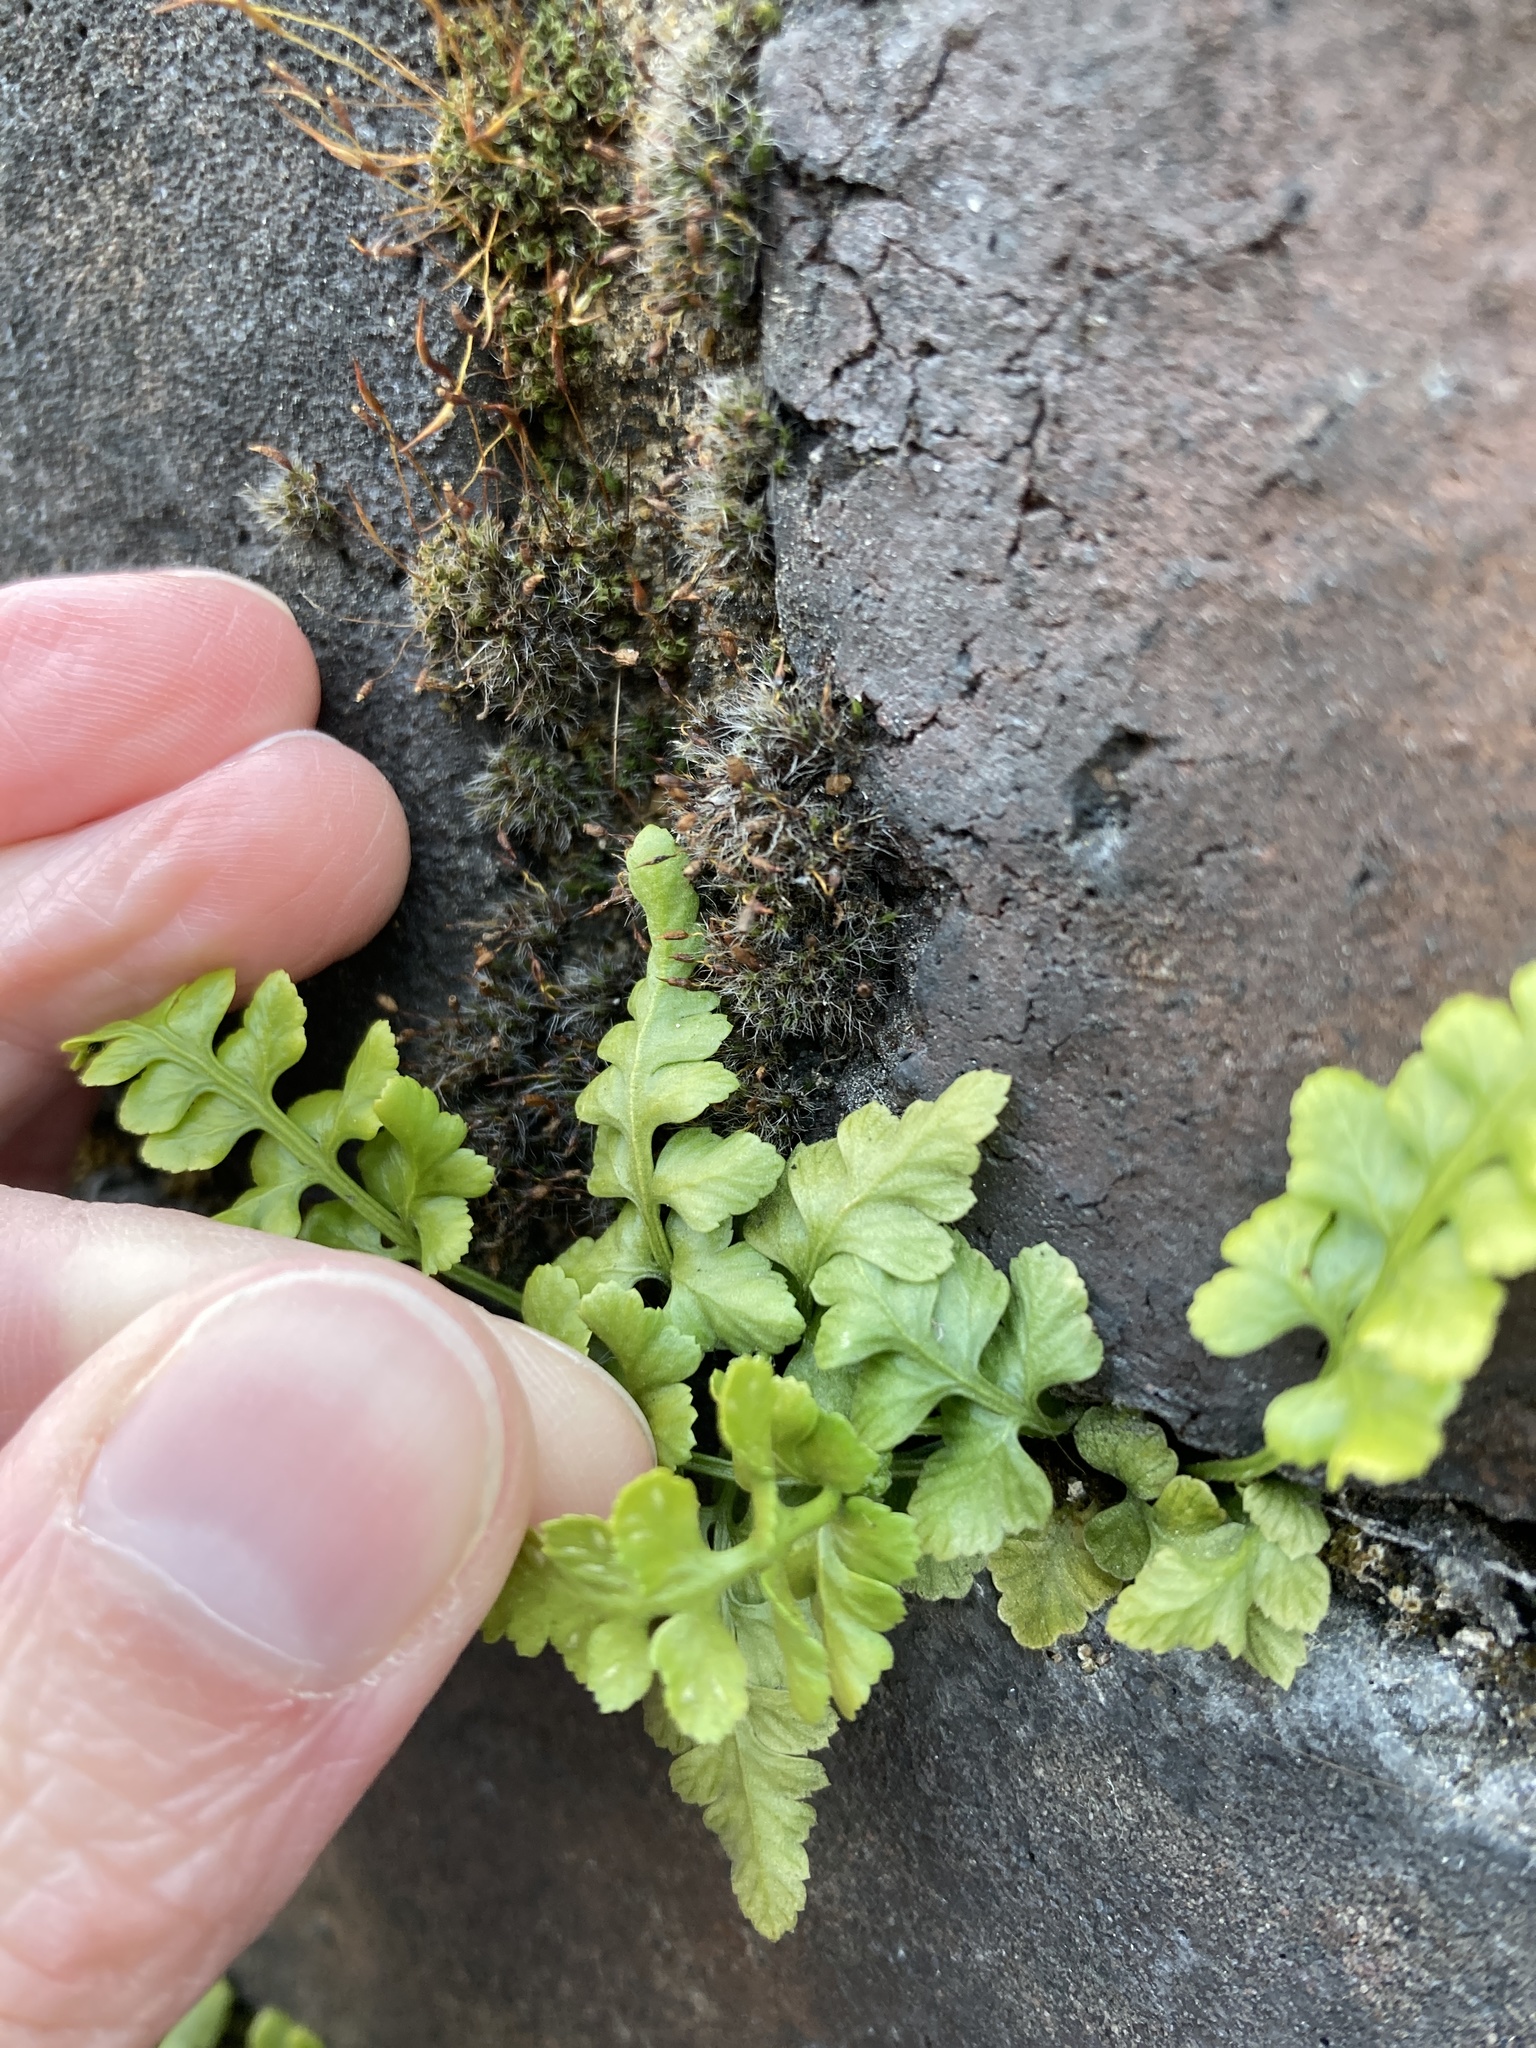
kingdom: Plantae
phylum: Tracheophyta
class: Polypodiopsida
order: Polypodiales
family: Aspleniaceae
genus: Asplenium
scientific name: Asplenium adiantum-nigrum
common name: Black spleenwort
